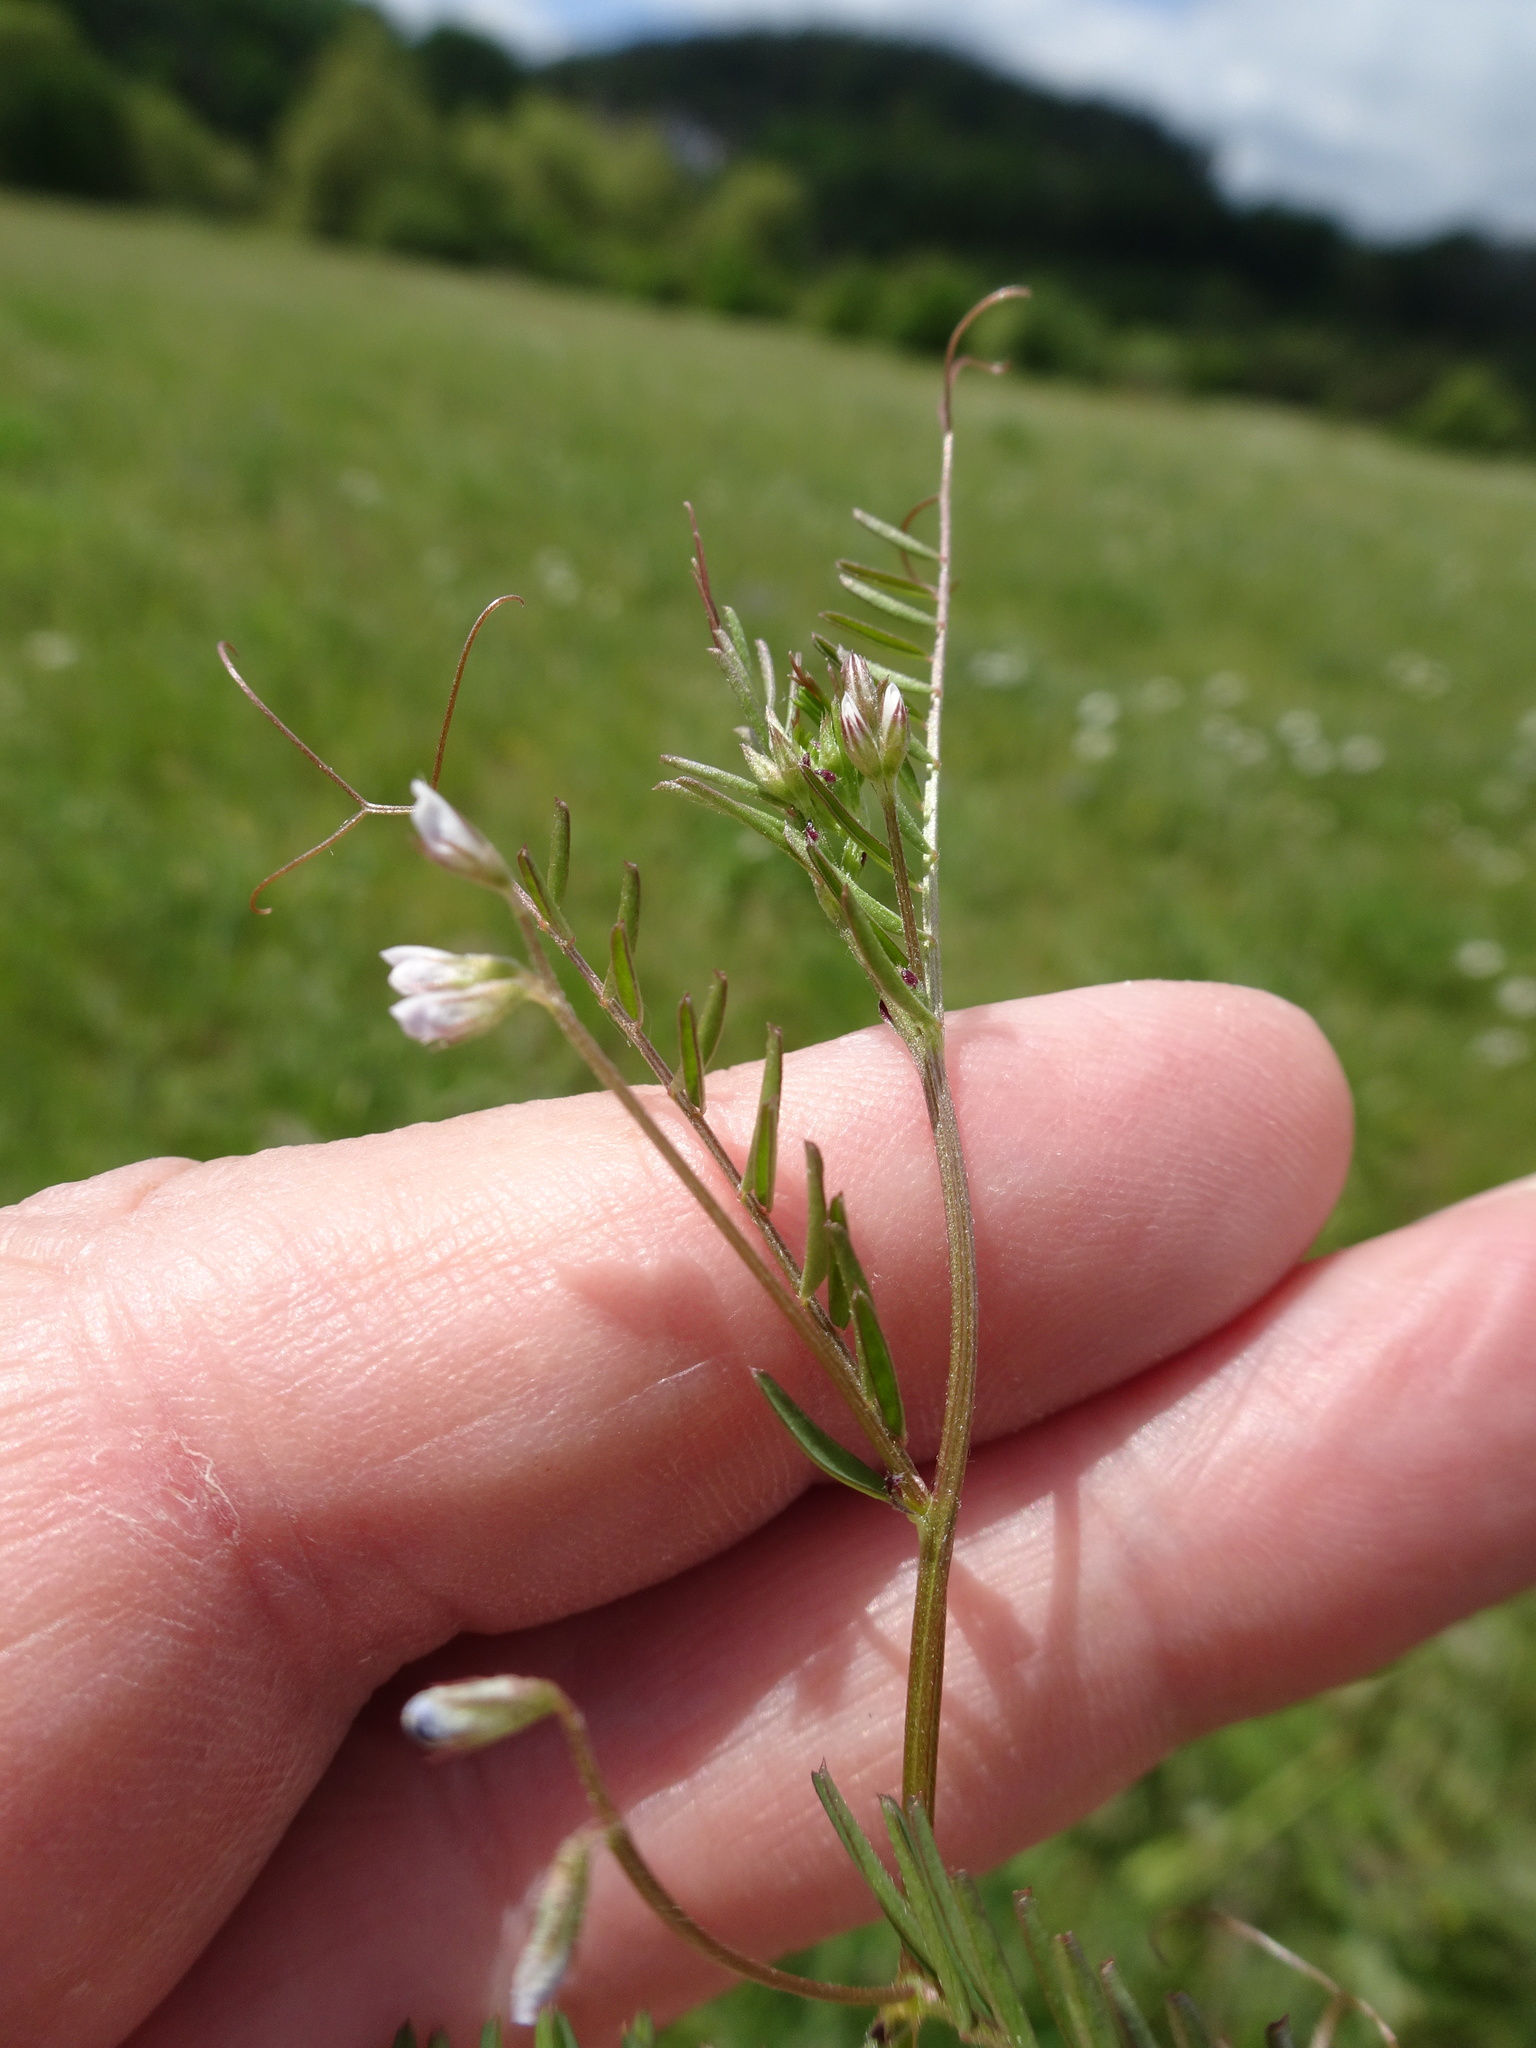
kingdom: Plantae
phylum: Tracheophyta
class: Magnoliopsida
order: Fabales
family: Fabaceae
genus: Vicia
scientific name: Vicia hirsuta
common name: Tiny vetch
